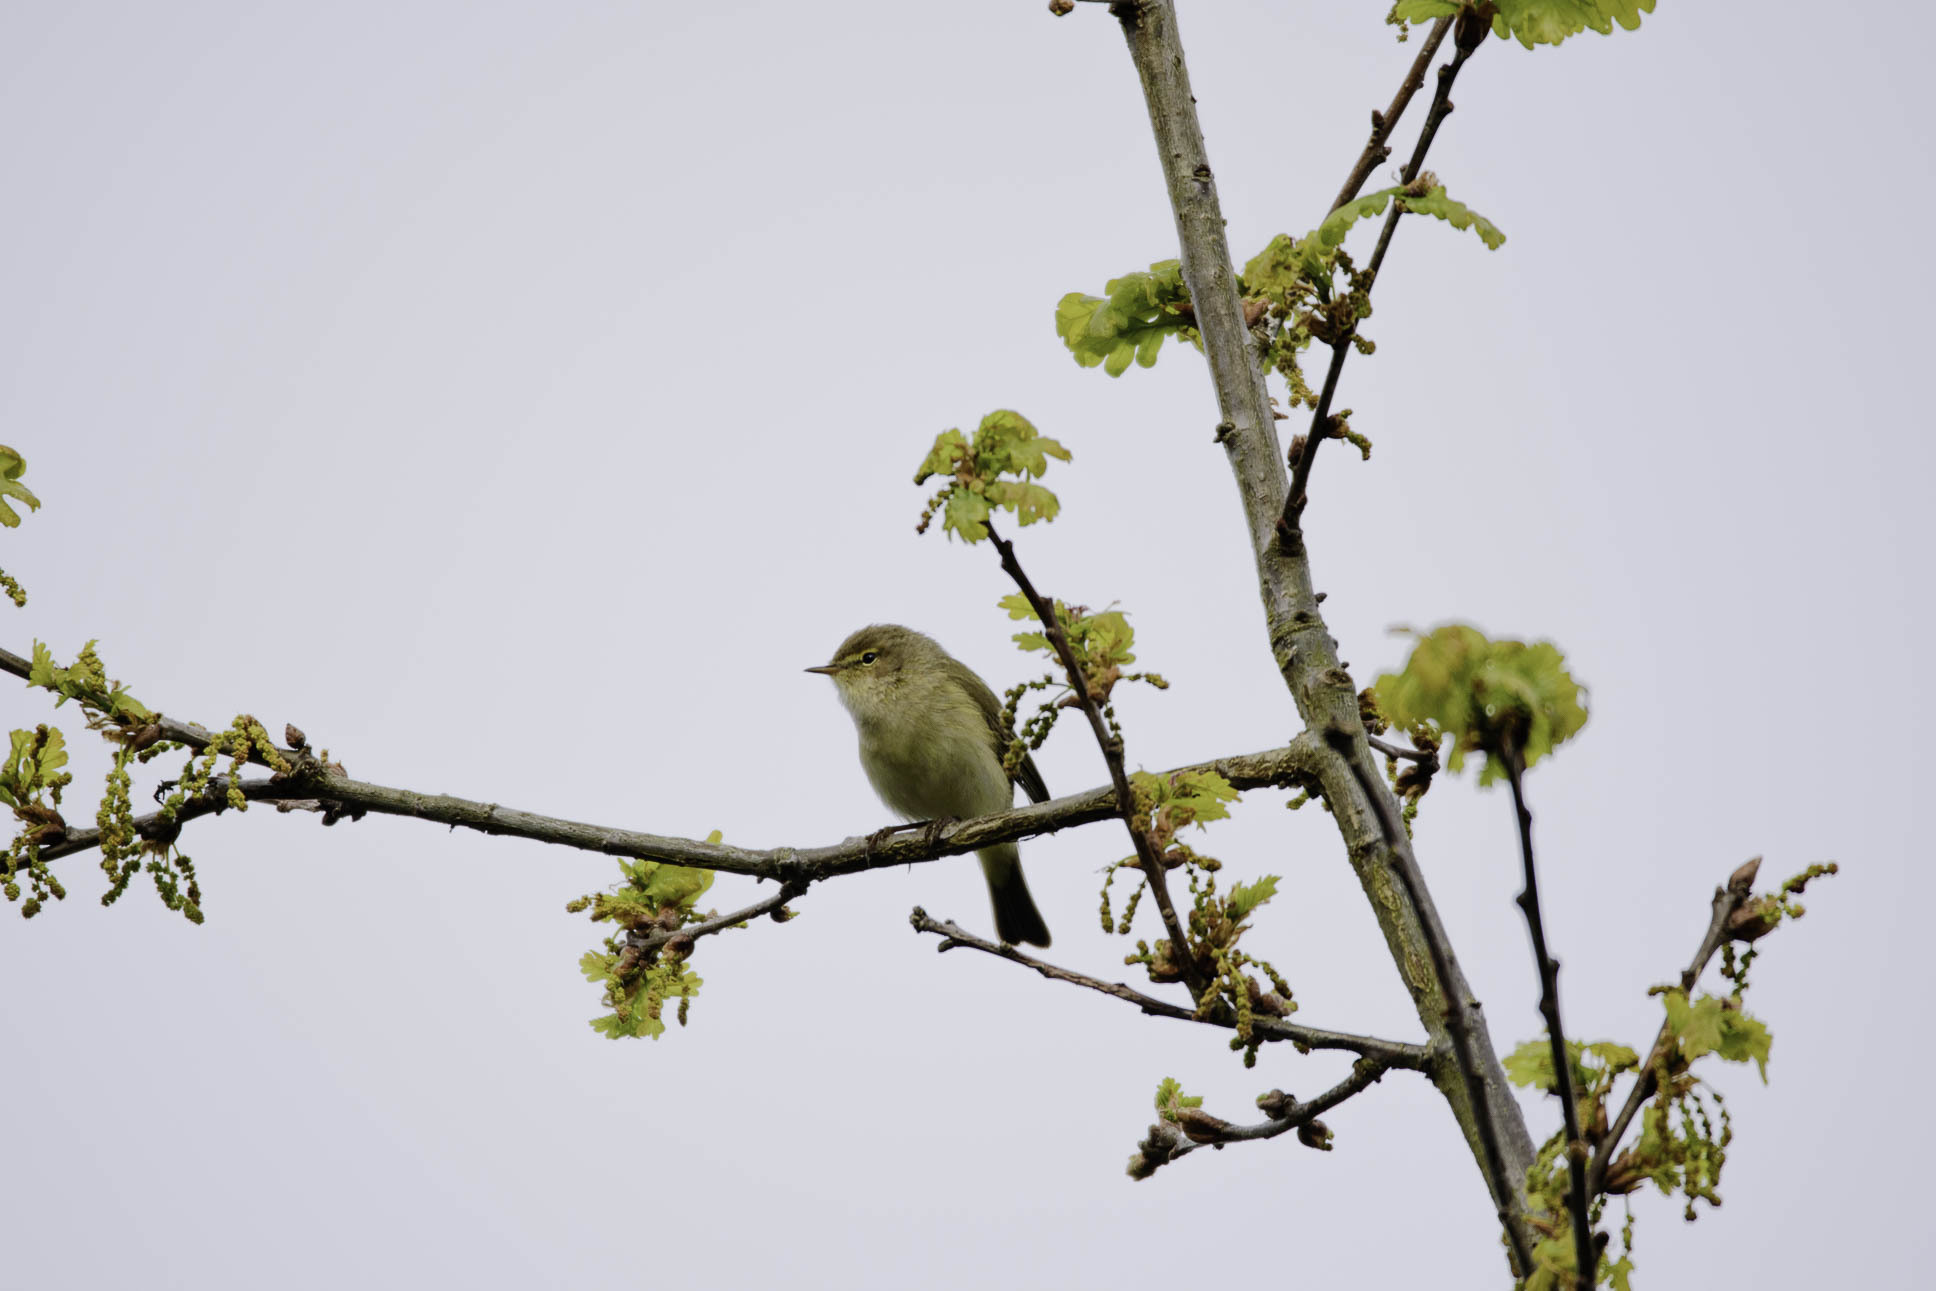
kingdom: Animalia
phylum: Chordata
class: Aves
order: Passeriformes
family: Phylloscopidae
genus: Phylloscopus
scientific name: Phylloscopus collybita
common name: Common chiffchaff
